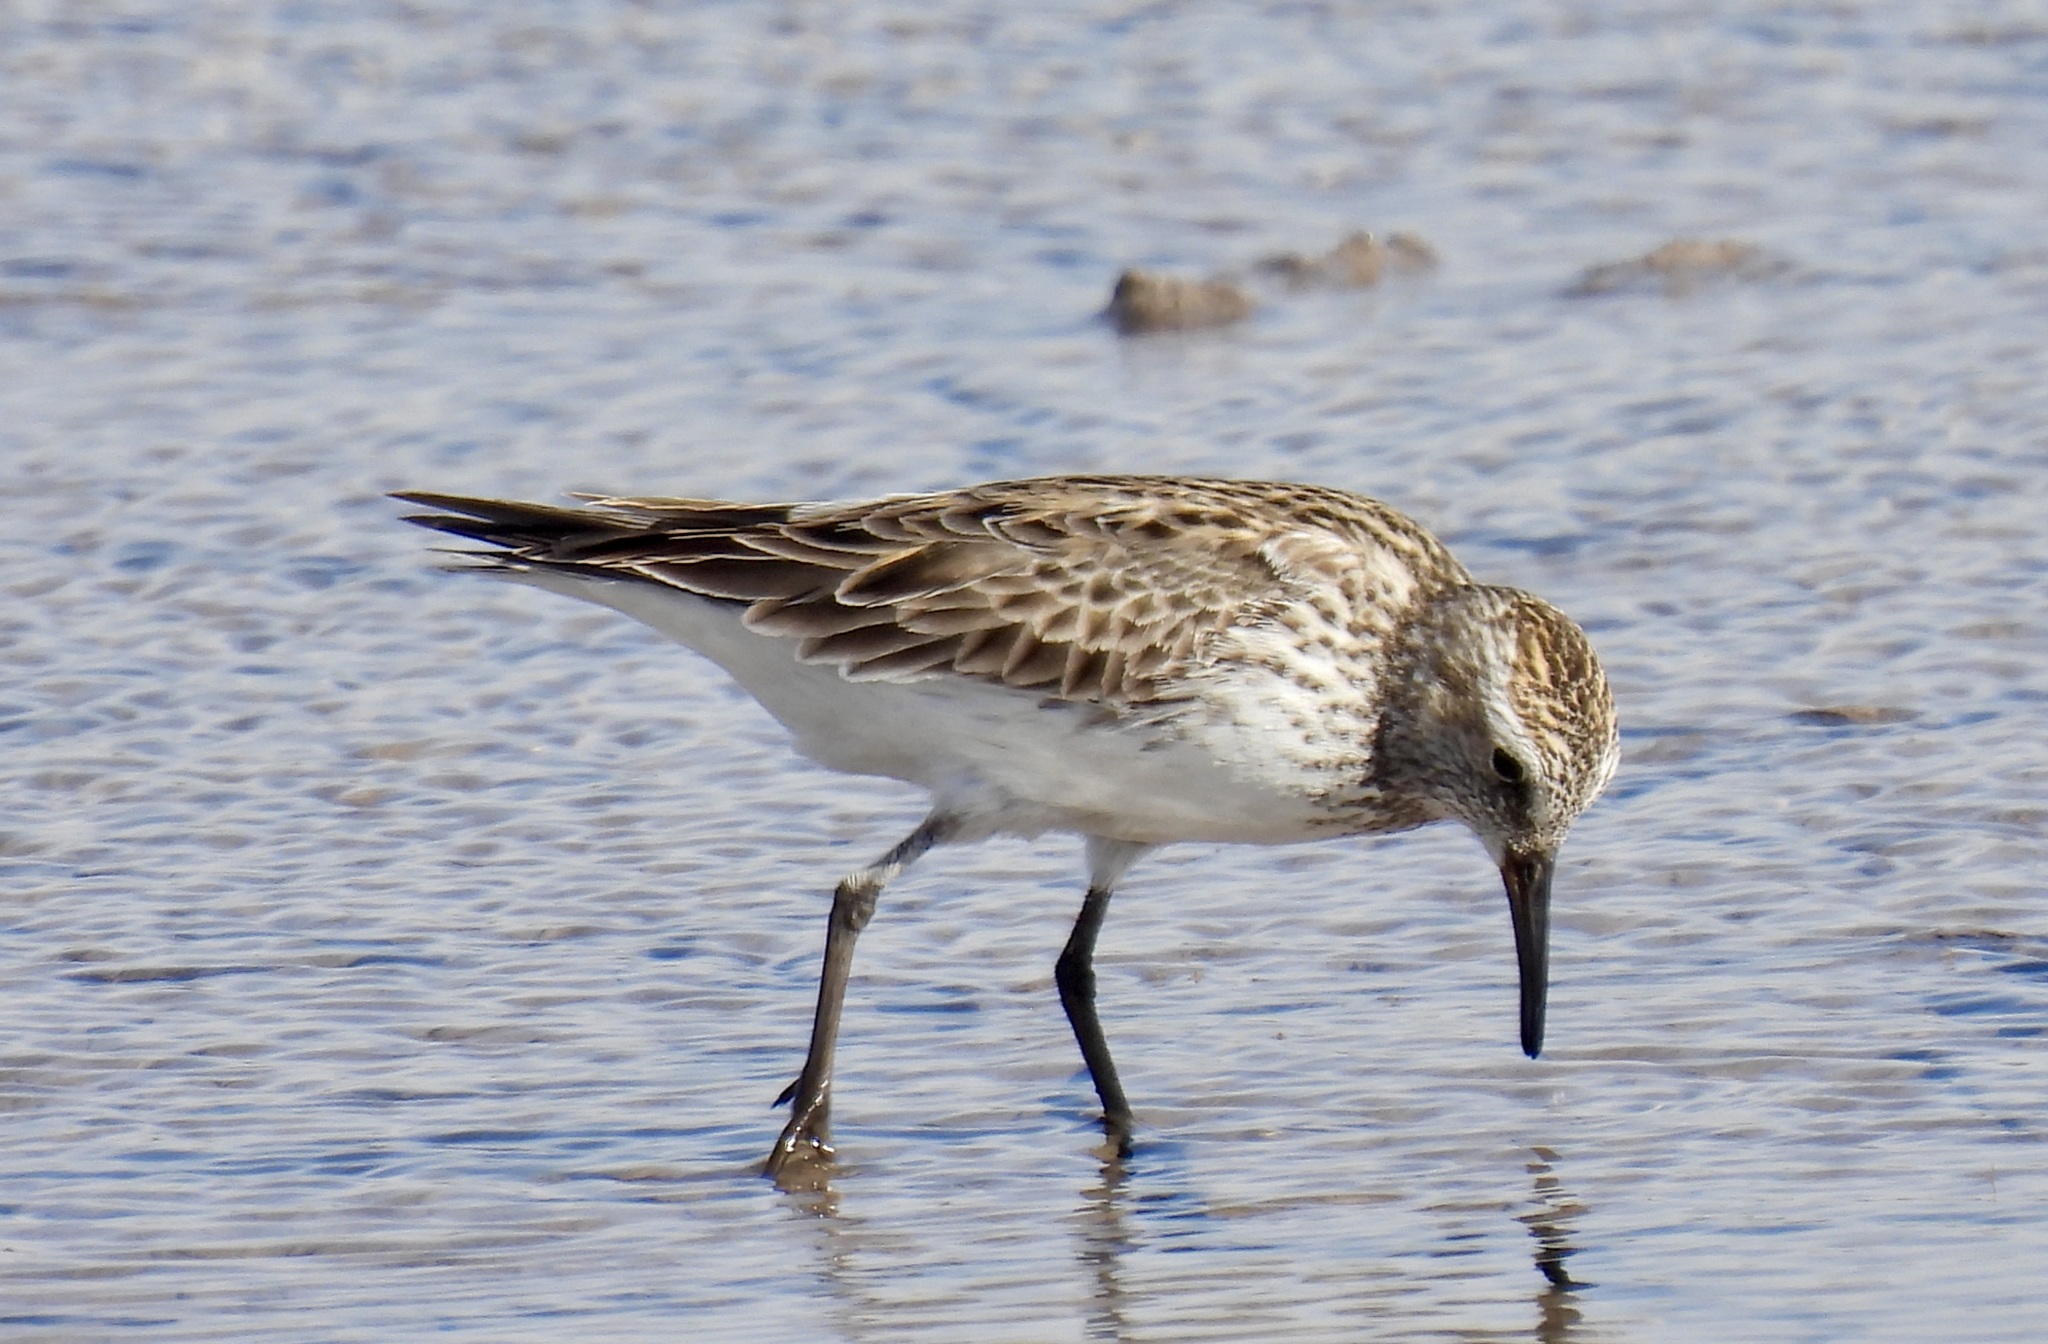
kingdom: Animalia
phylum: Chordata
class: Aves
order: Charadriiformes
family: Scolopacidae
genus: Calidris
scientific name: Calidris fuscicollis
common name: White-rumped sandpiper
